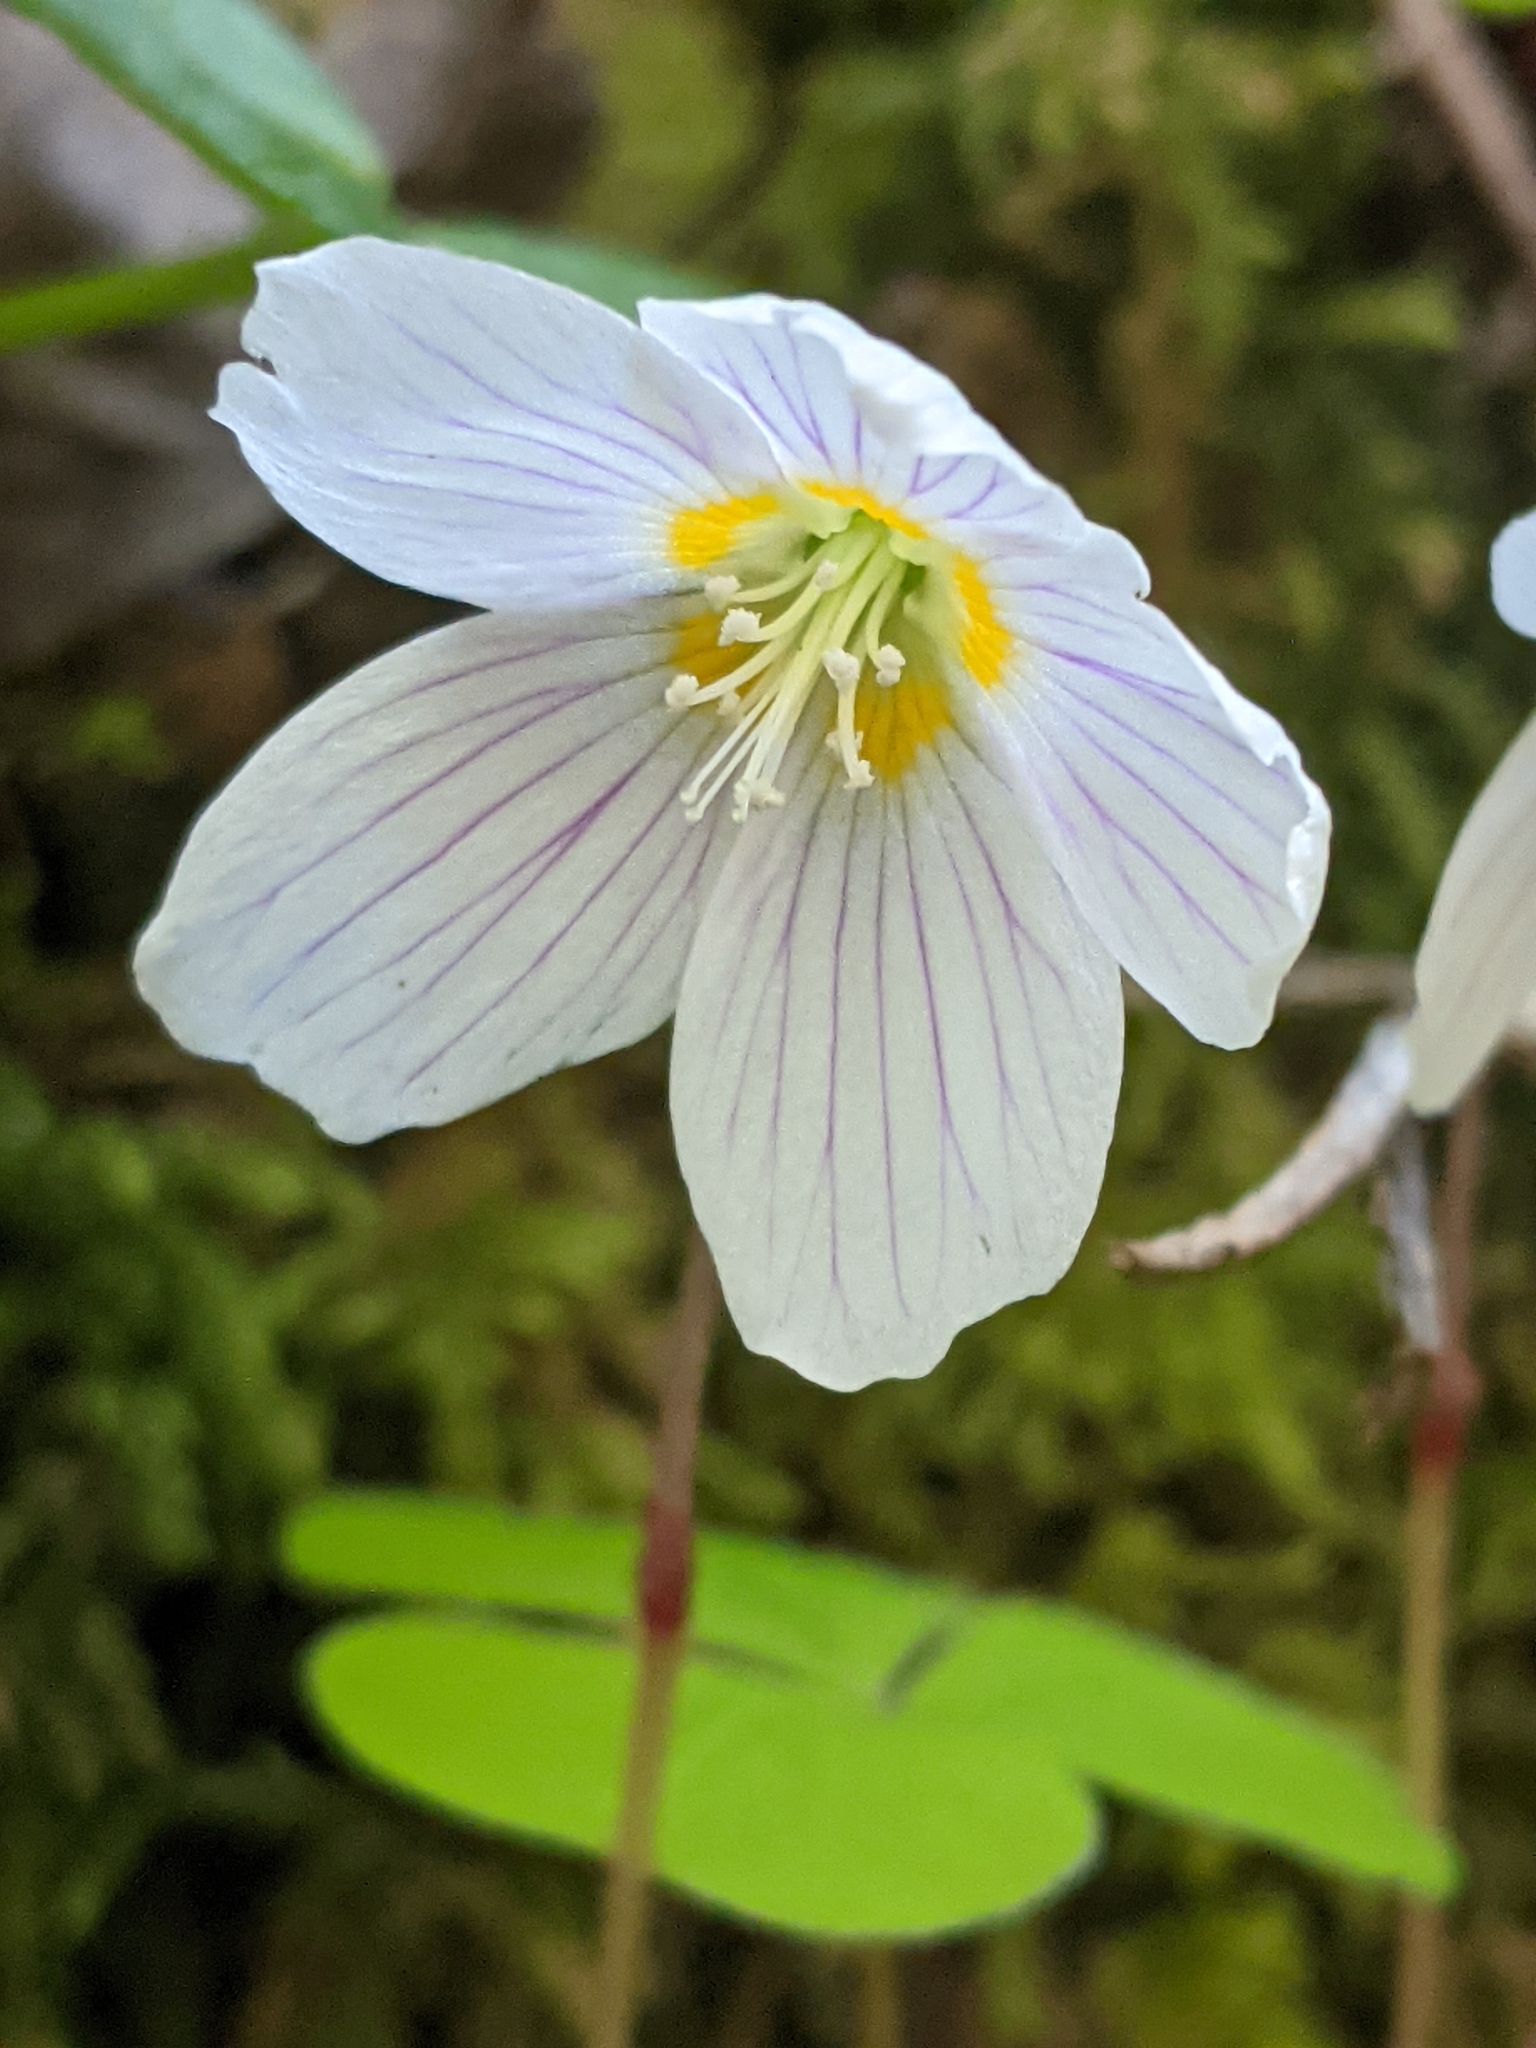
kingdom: Plantae
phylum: Tracheophyta
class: Magnoliopsida
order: Oxalidales
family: Oxalidaceae
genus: Oxalis
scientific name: Oxalis acetosella
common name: Wood-sorrel
